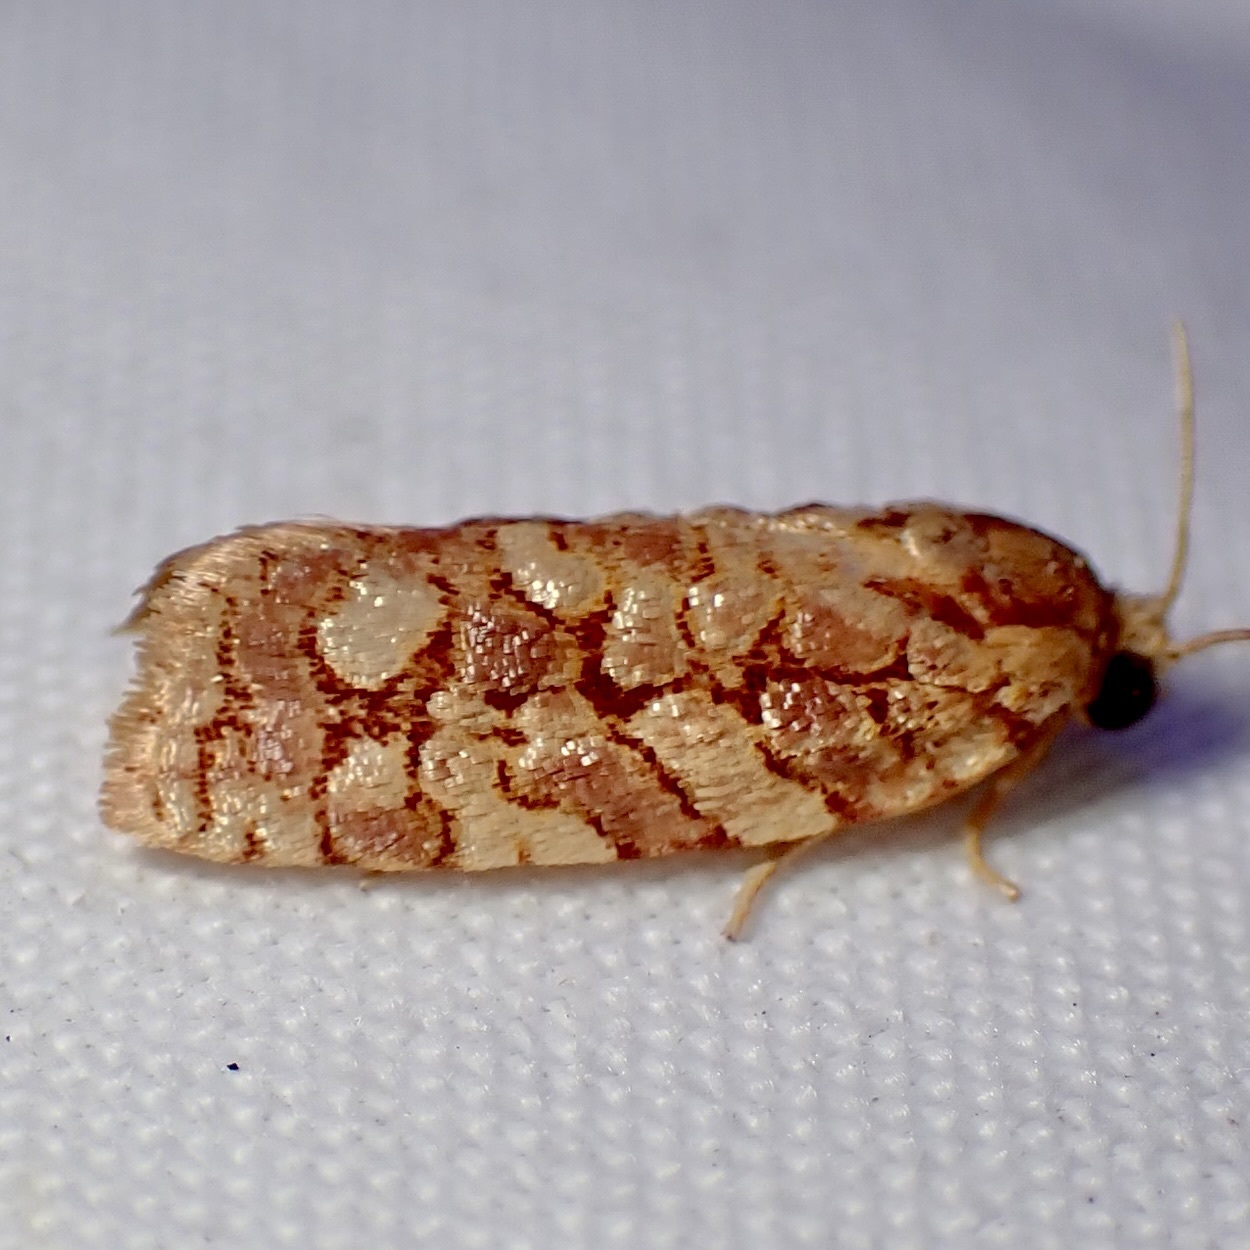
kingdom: Animalia
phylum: Arthropoda
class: Insecta
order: Lepidoptera
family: Tortricidae
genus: Choristoneura
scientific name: Choristoneura houstonana
